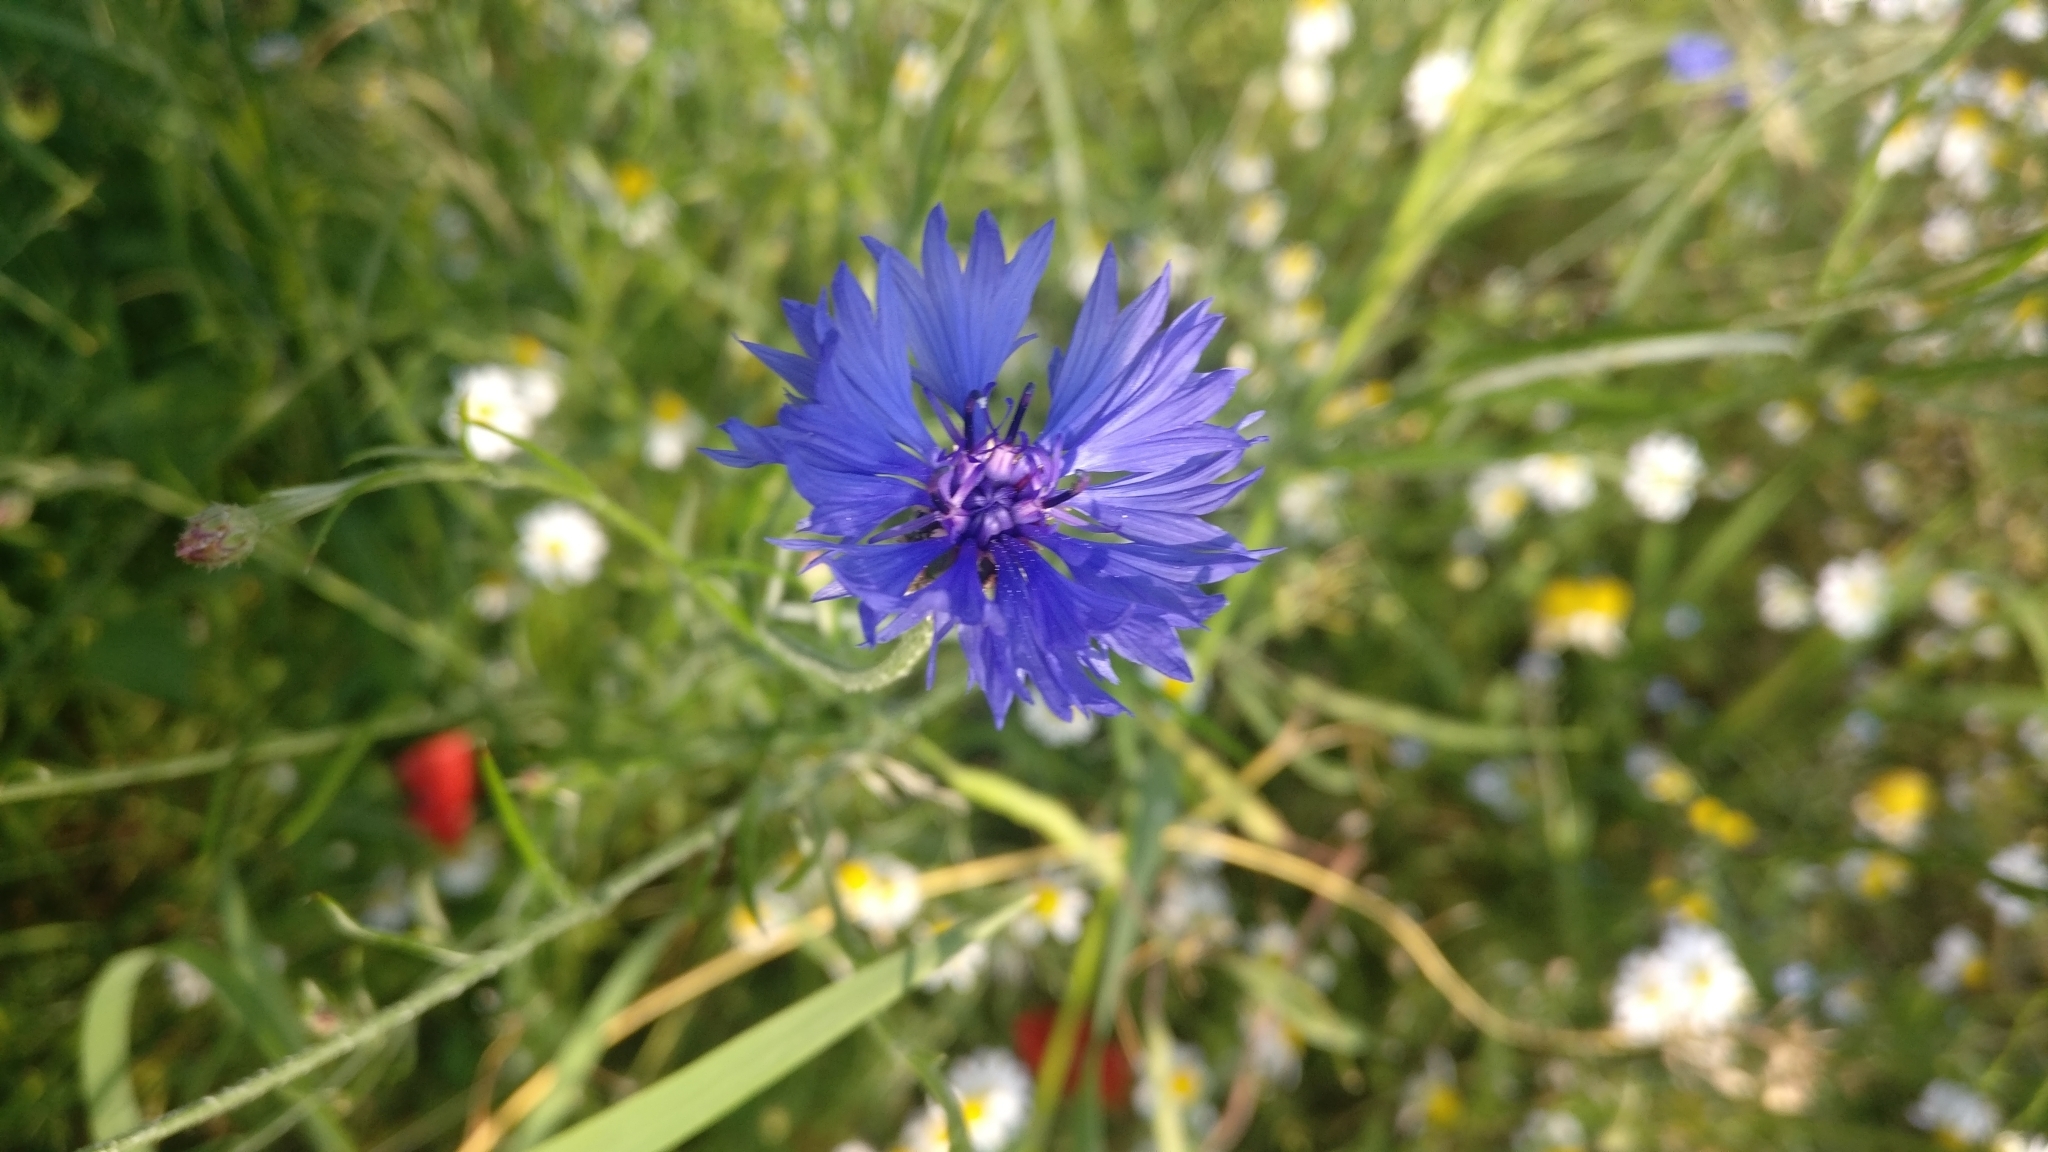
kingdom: Plantae
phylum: Tracheophyta
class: Magnoliopsida
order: Asterales
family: Asteraceae
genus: Centaurea
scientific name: Centaurea cyanus
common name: Cornflower
